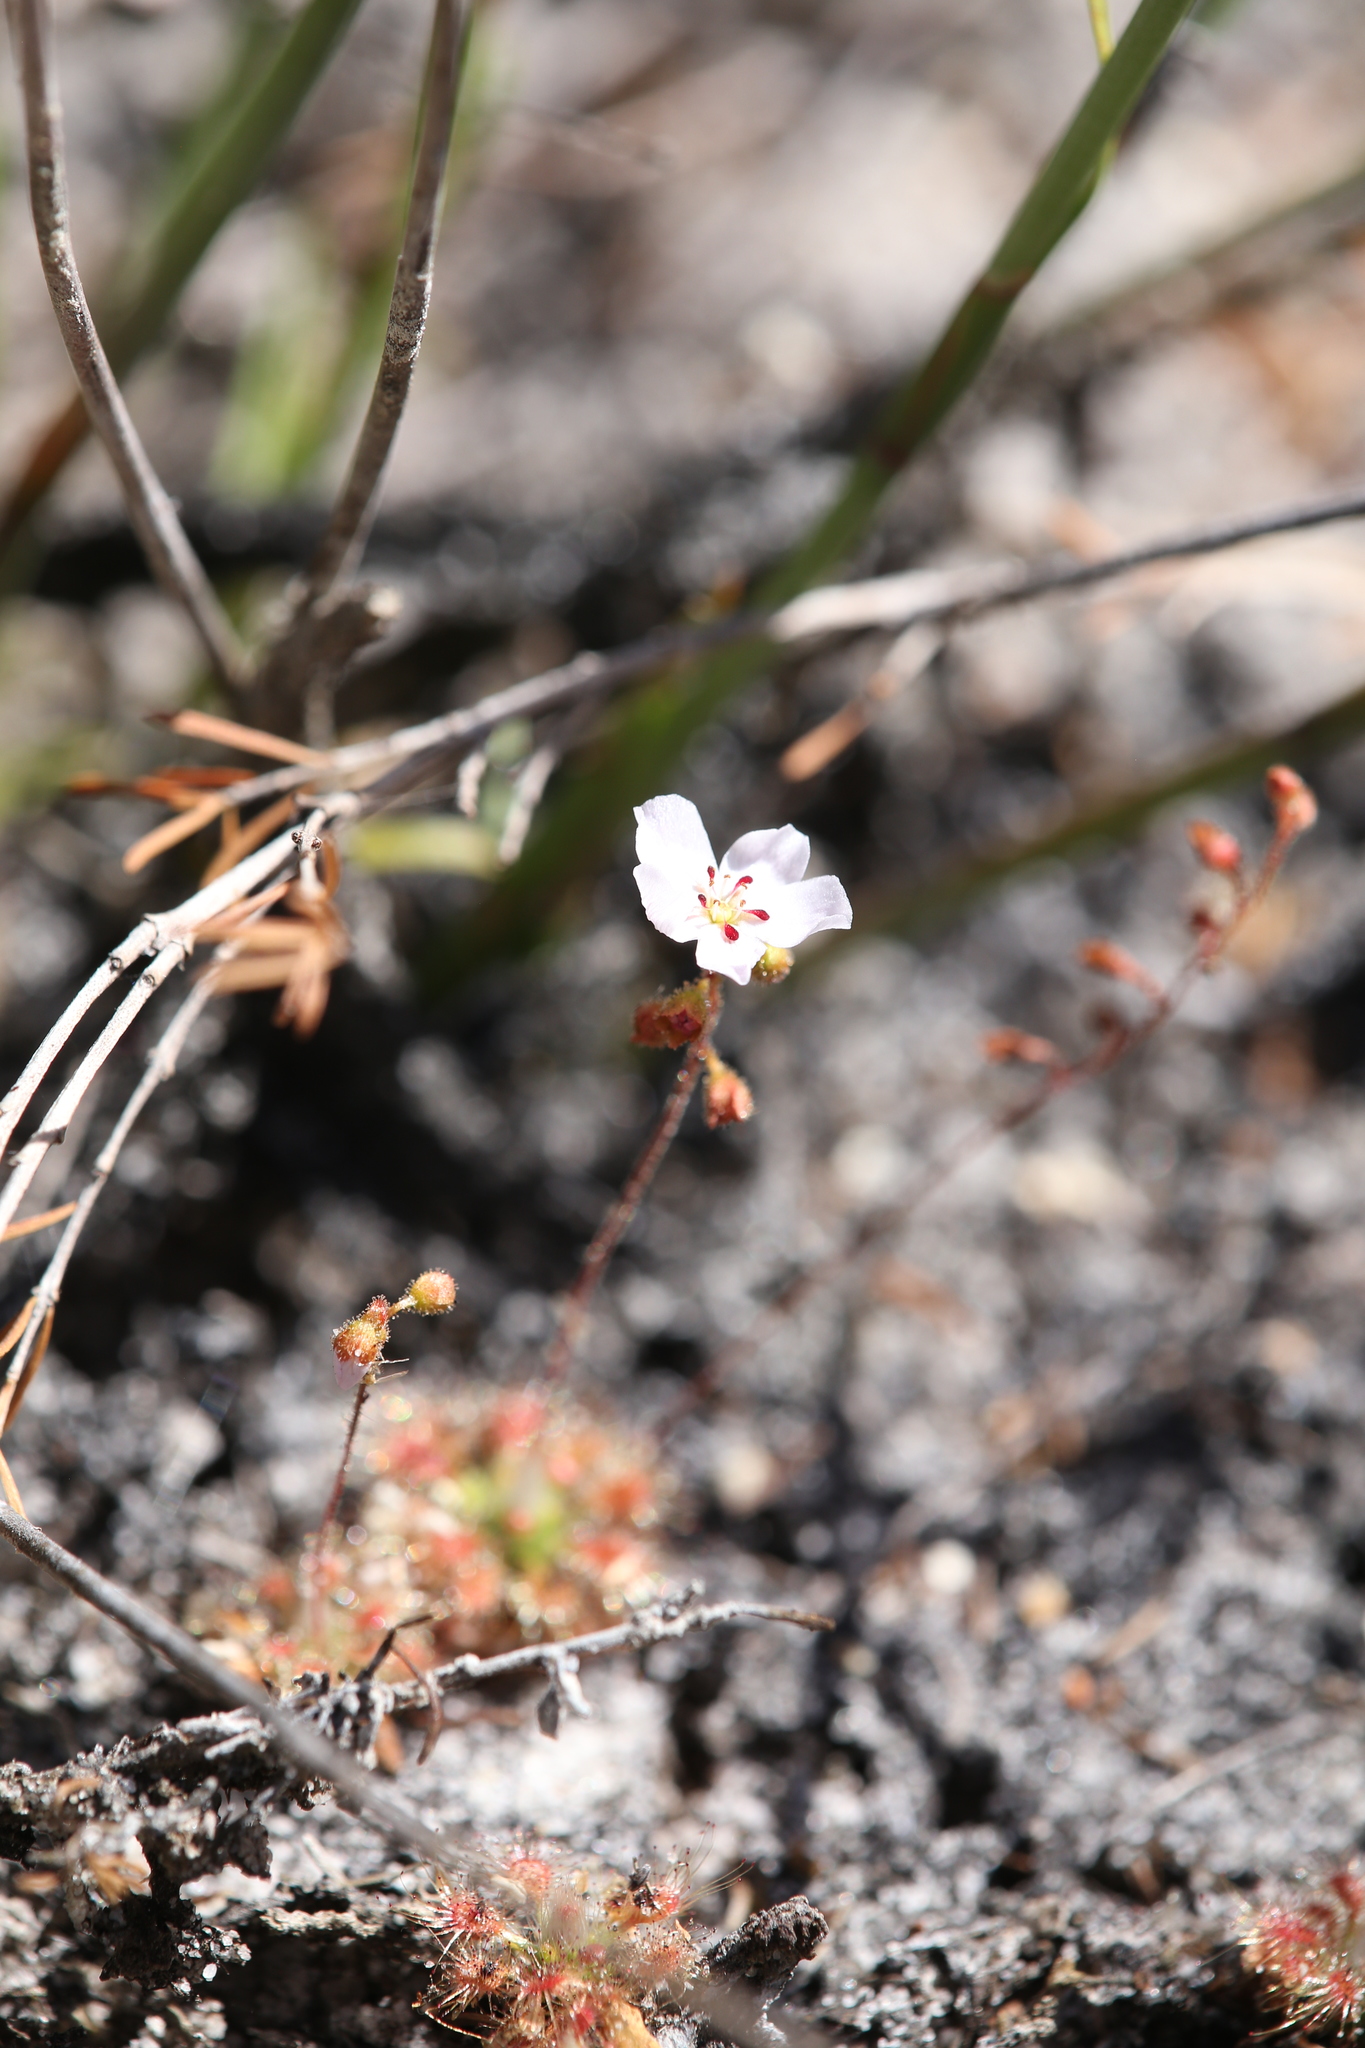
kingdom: Plantae
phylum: Tracheophyta
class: Magnoliopsida
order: Caryophyllales
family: Droseraceae
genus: Drosera
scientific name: Drosera sidjamesii
